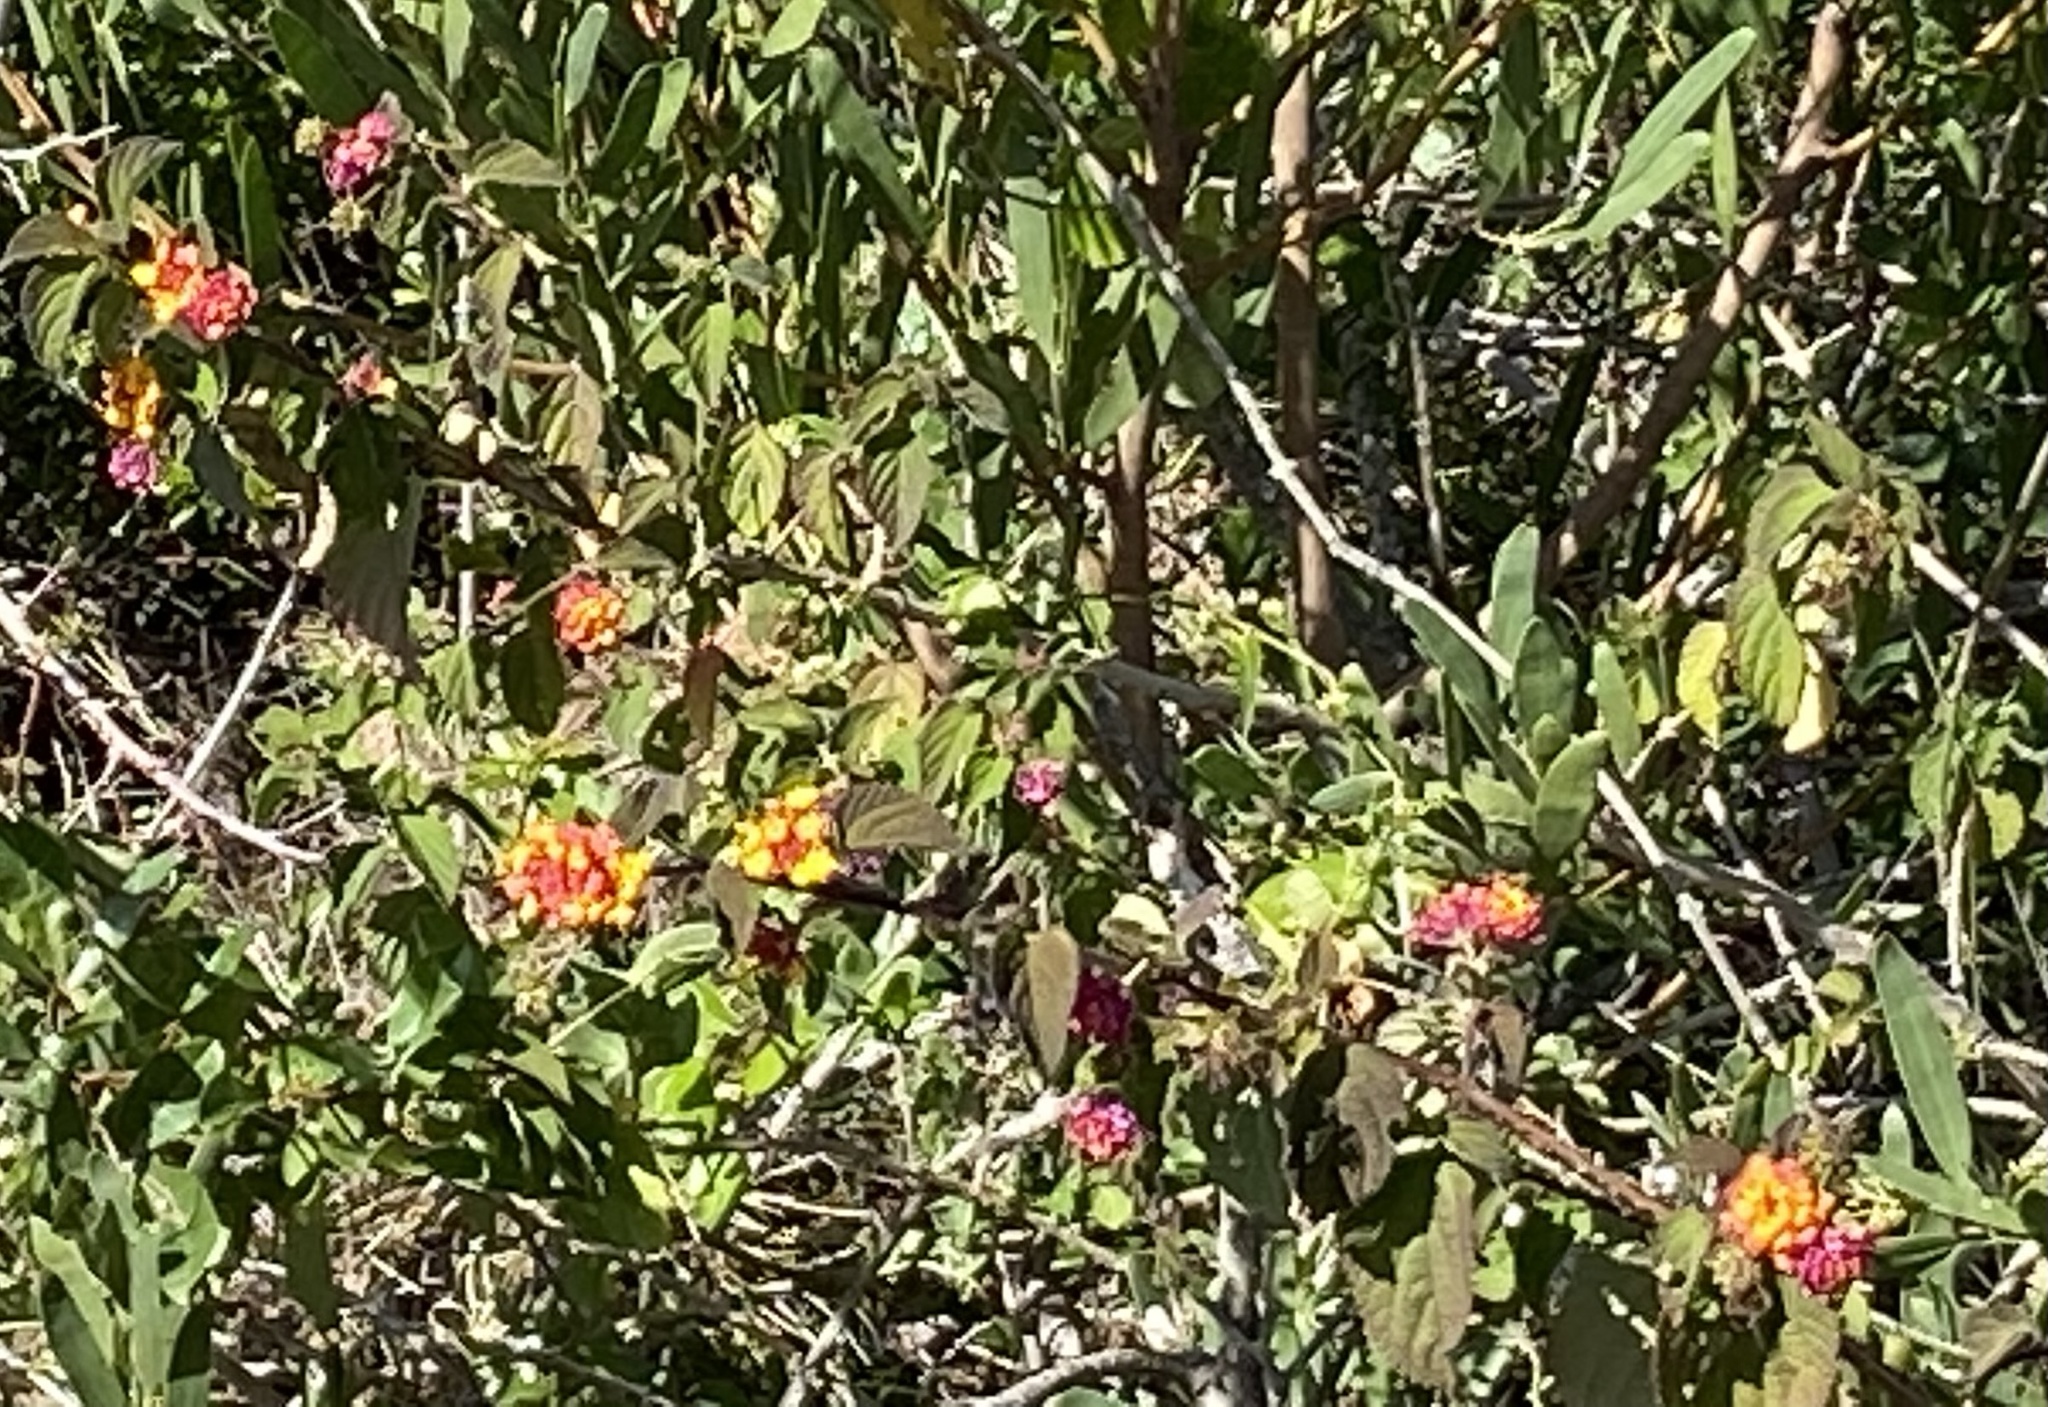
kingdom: Plantae
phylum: Tracheophyta
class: Magnoliopsida
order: Lamiales
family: Verbenaceae
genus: Lantana
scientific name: Lantana camara
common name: Lantana
